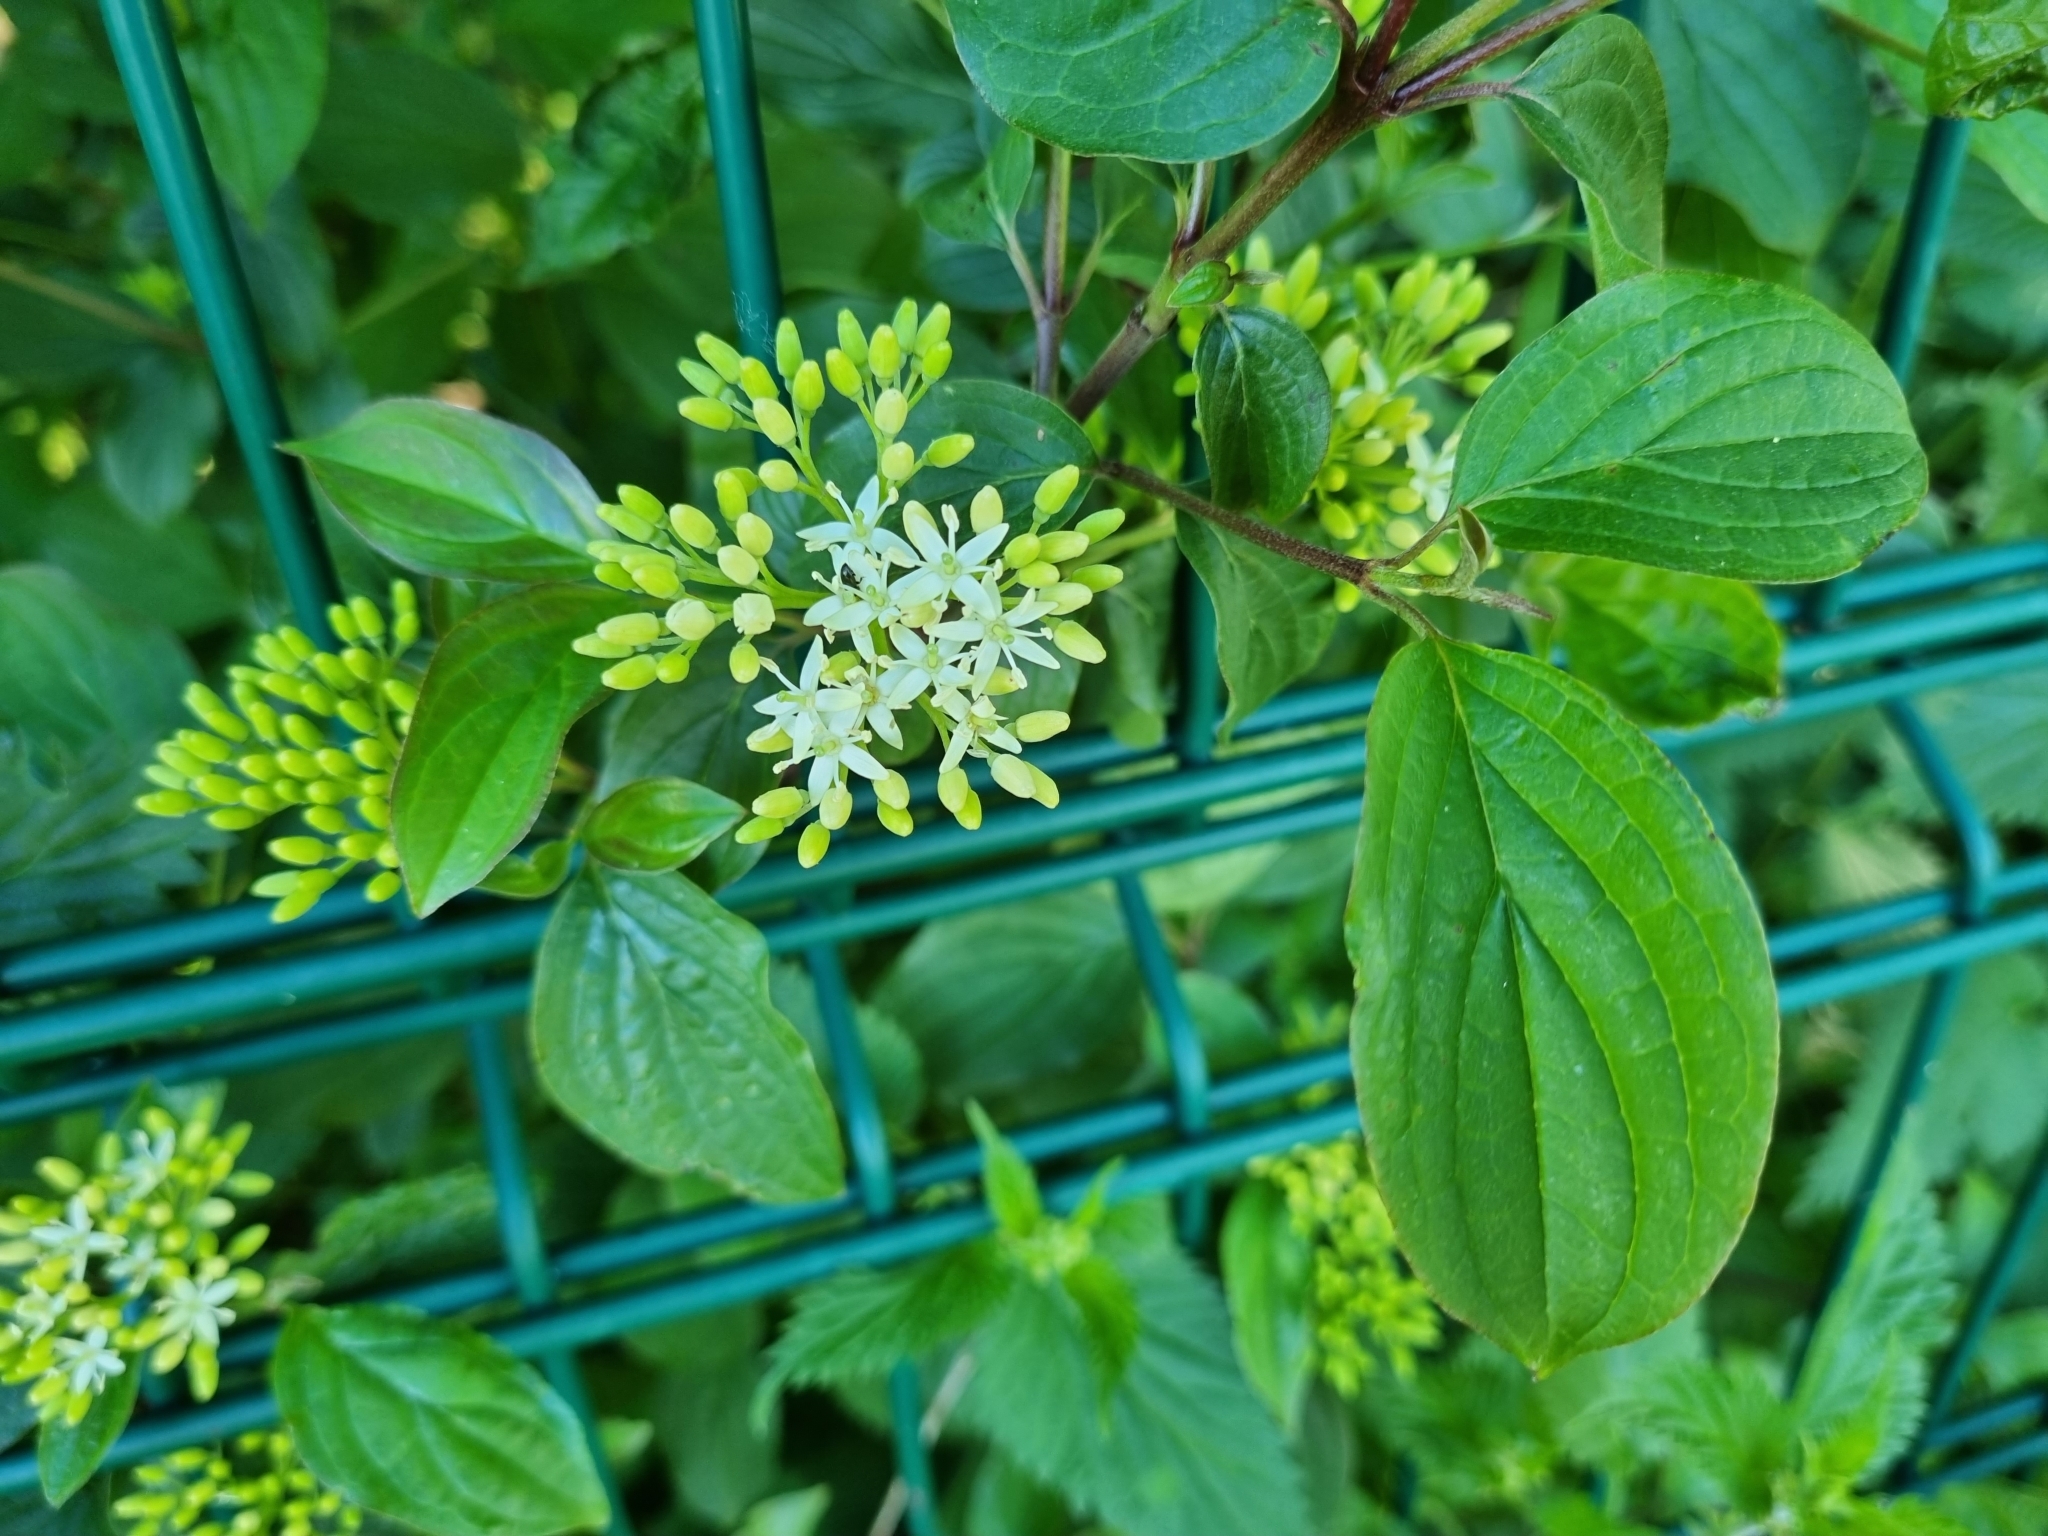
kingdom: Plantae
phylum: Tracheophyta
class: Magnoliopsida
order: Cornales
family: Cornaceae
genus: Cornus
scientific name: Cornus sanguinea
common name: Dogwood
